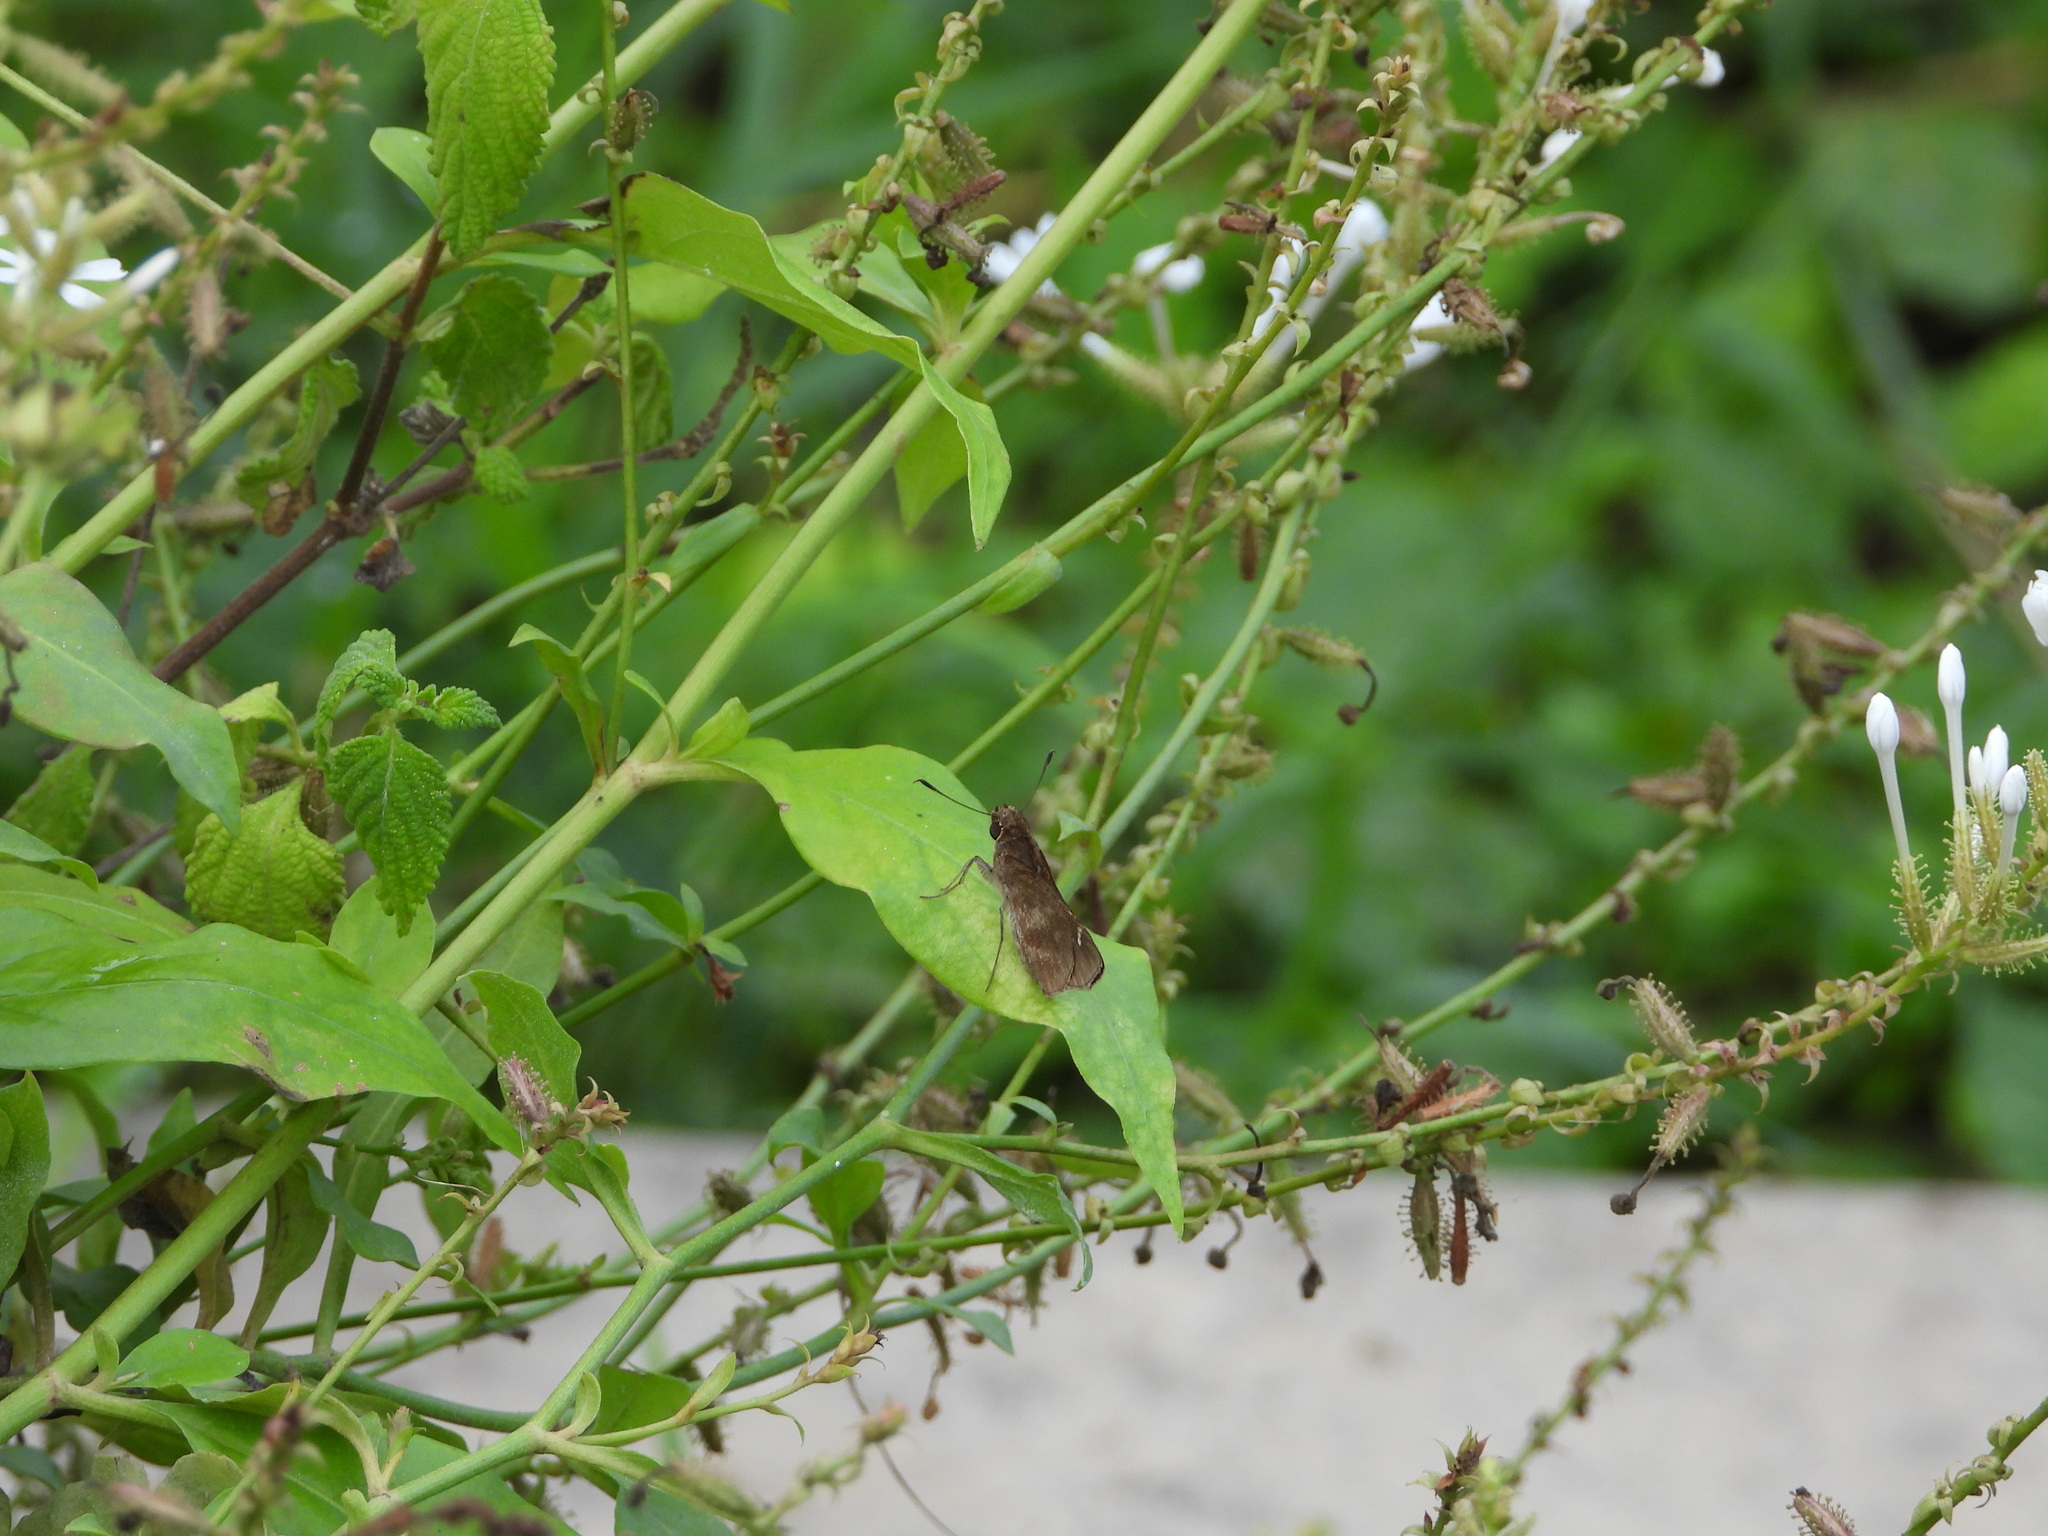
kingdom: Animalia
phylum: Arthropoda
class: Insecta
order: Lepidoptera
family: Hesperiidae
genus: Lerema
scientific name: Lerema accius
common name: Clouded skipper
